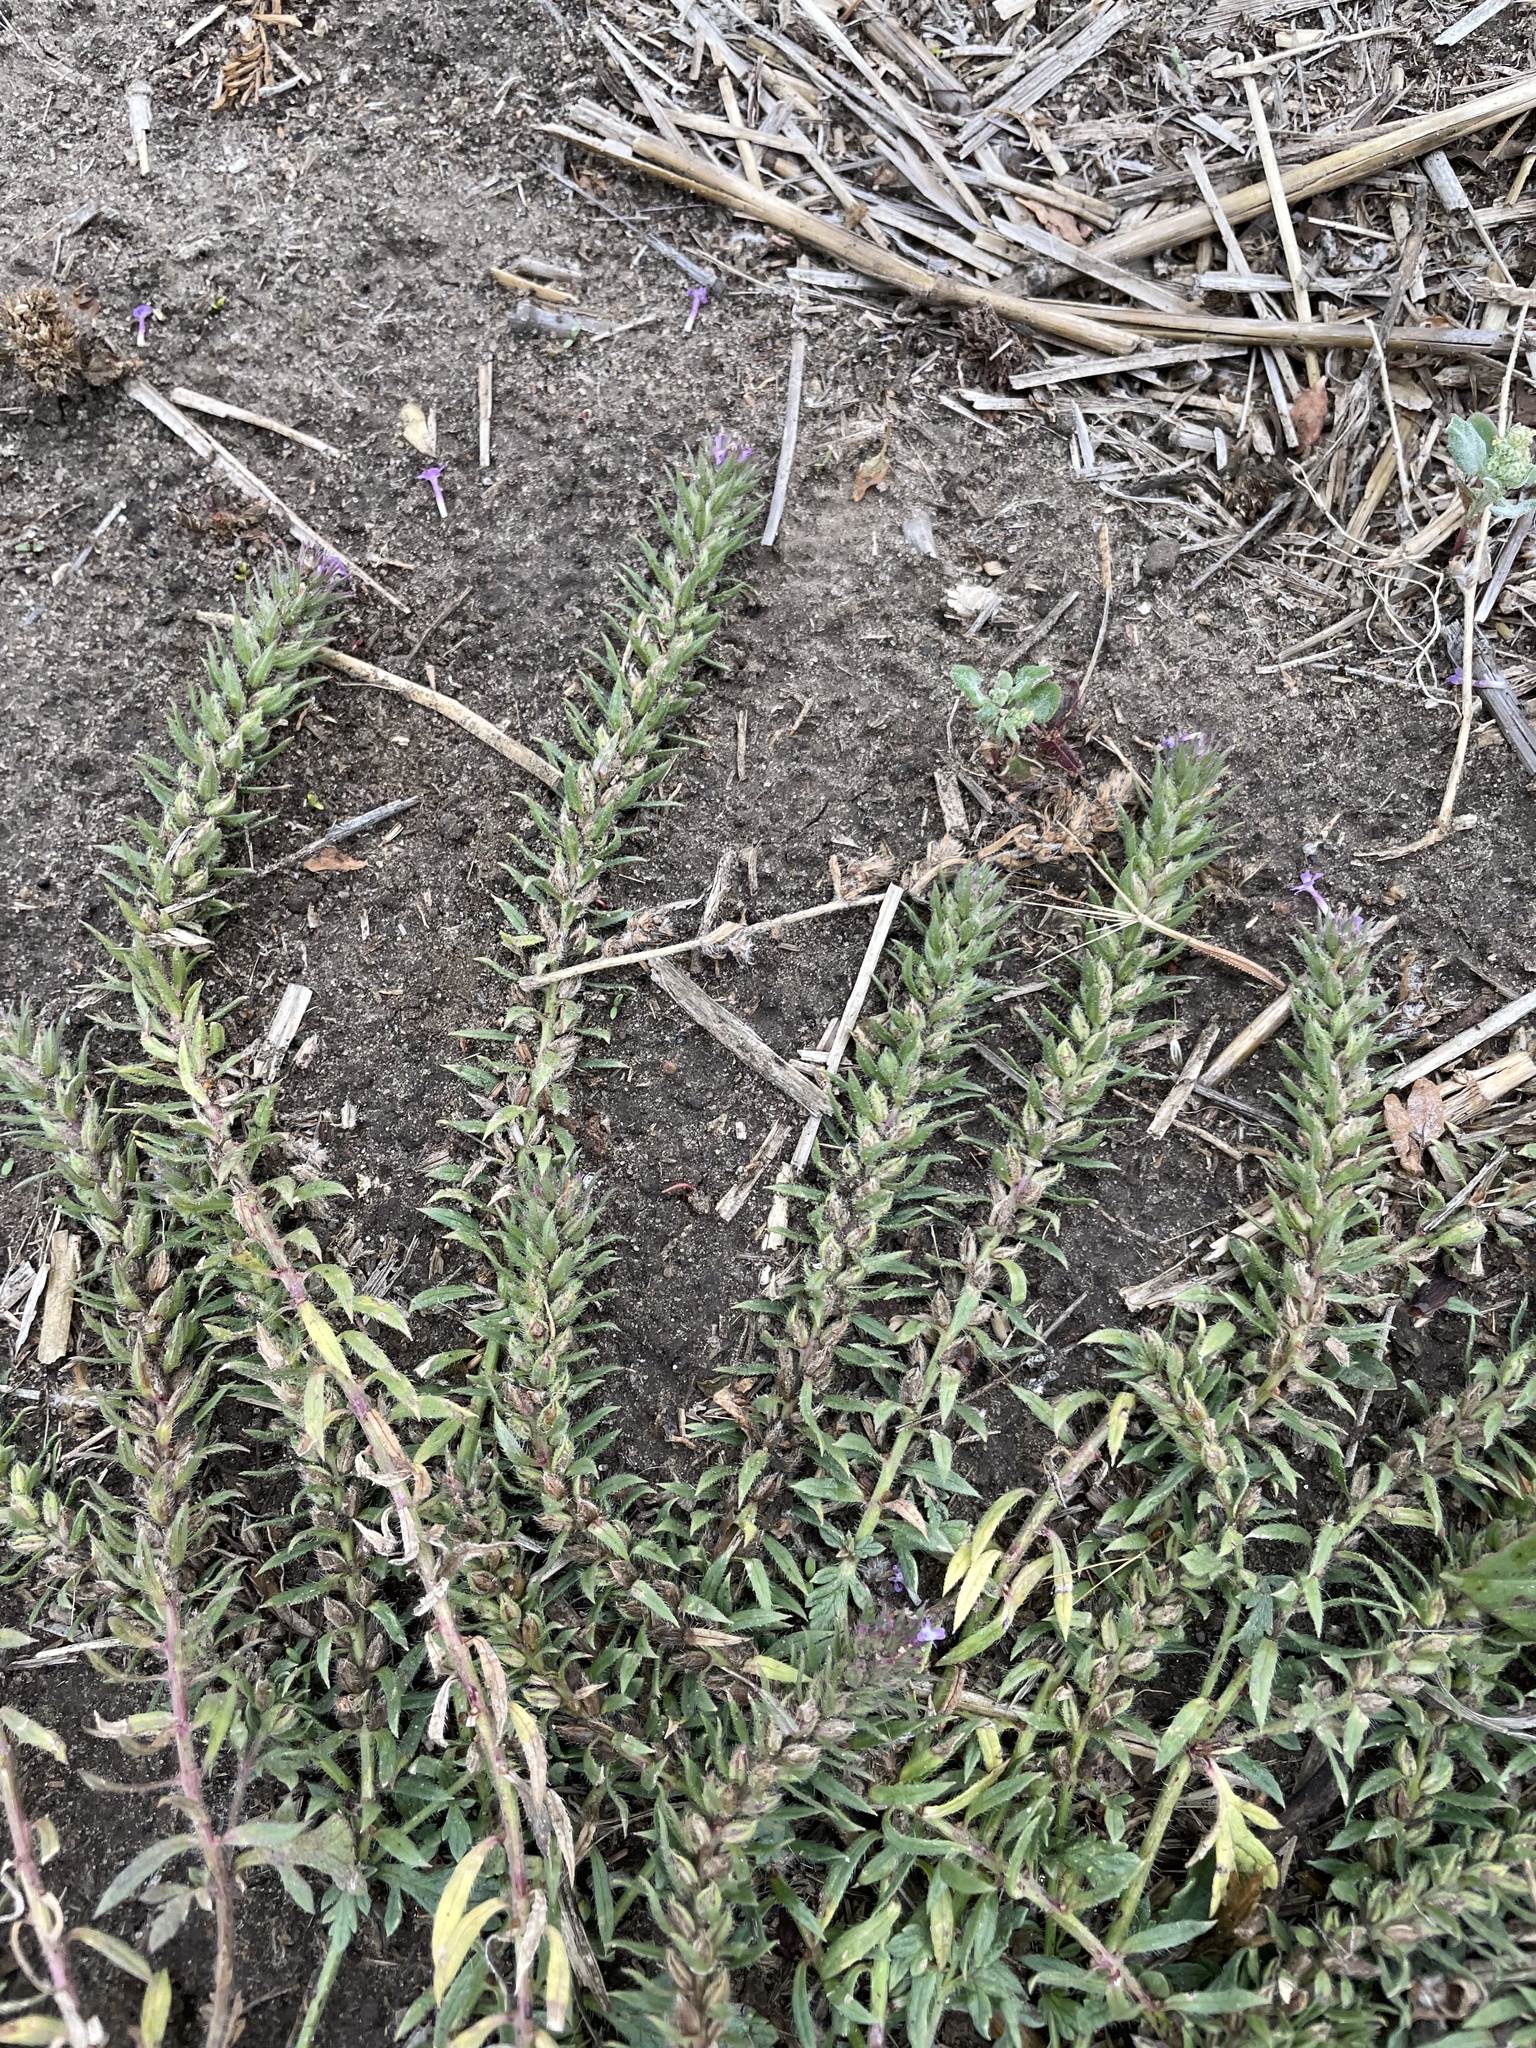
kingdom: Plantae
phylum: Tracheophyta
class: Magnoliopsida
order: Lamiales
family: Verbenaceae
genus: Verbena
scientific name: Verbena bracteata
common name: Bracted vervain
